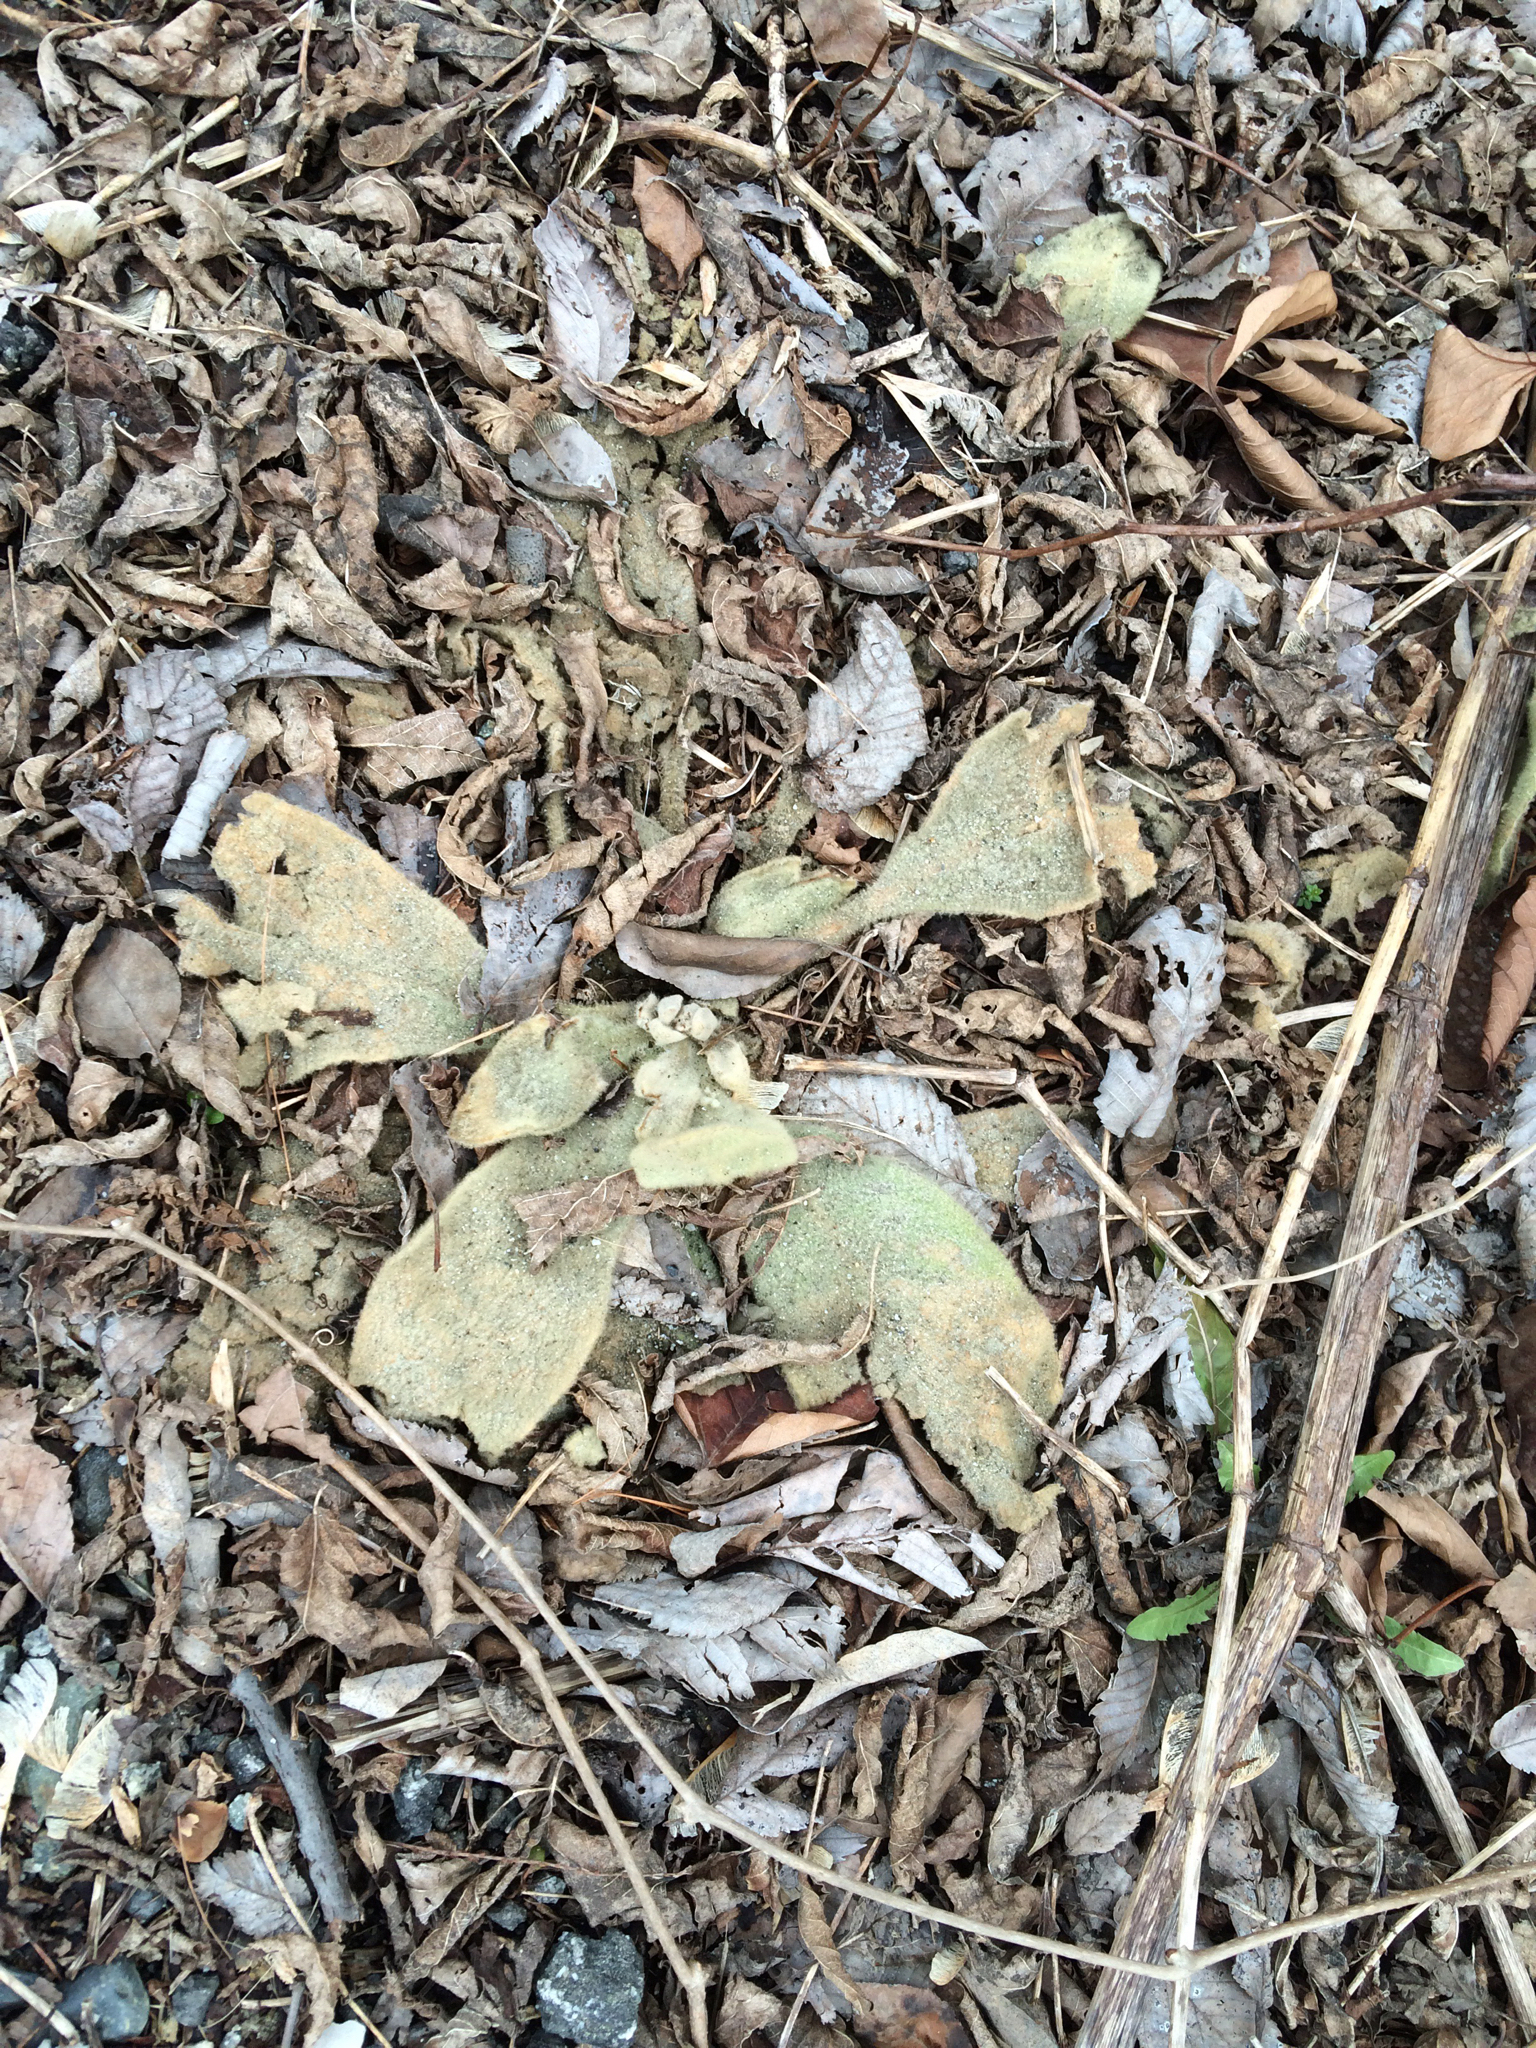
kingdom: Plantae
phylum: Tracheophyta
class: Magnoliopsida
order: Lamiales
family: Scrophulariaceae
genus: Verbascum
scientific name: Verbascum thapsus
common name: Common mullein
